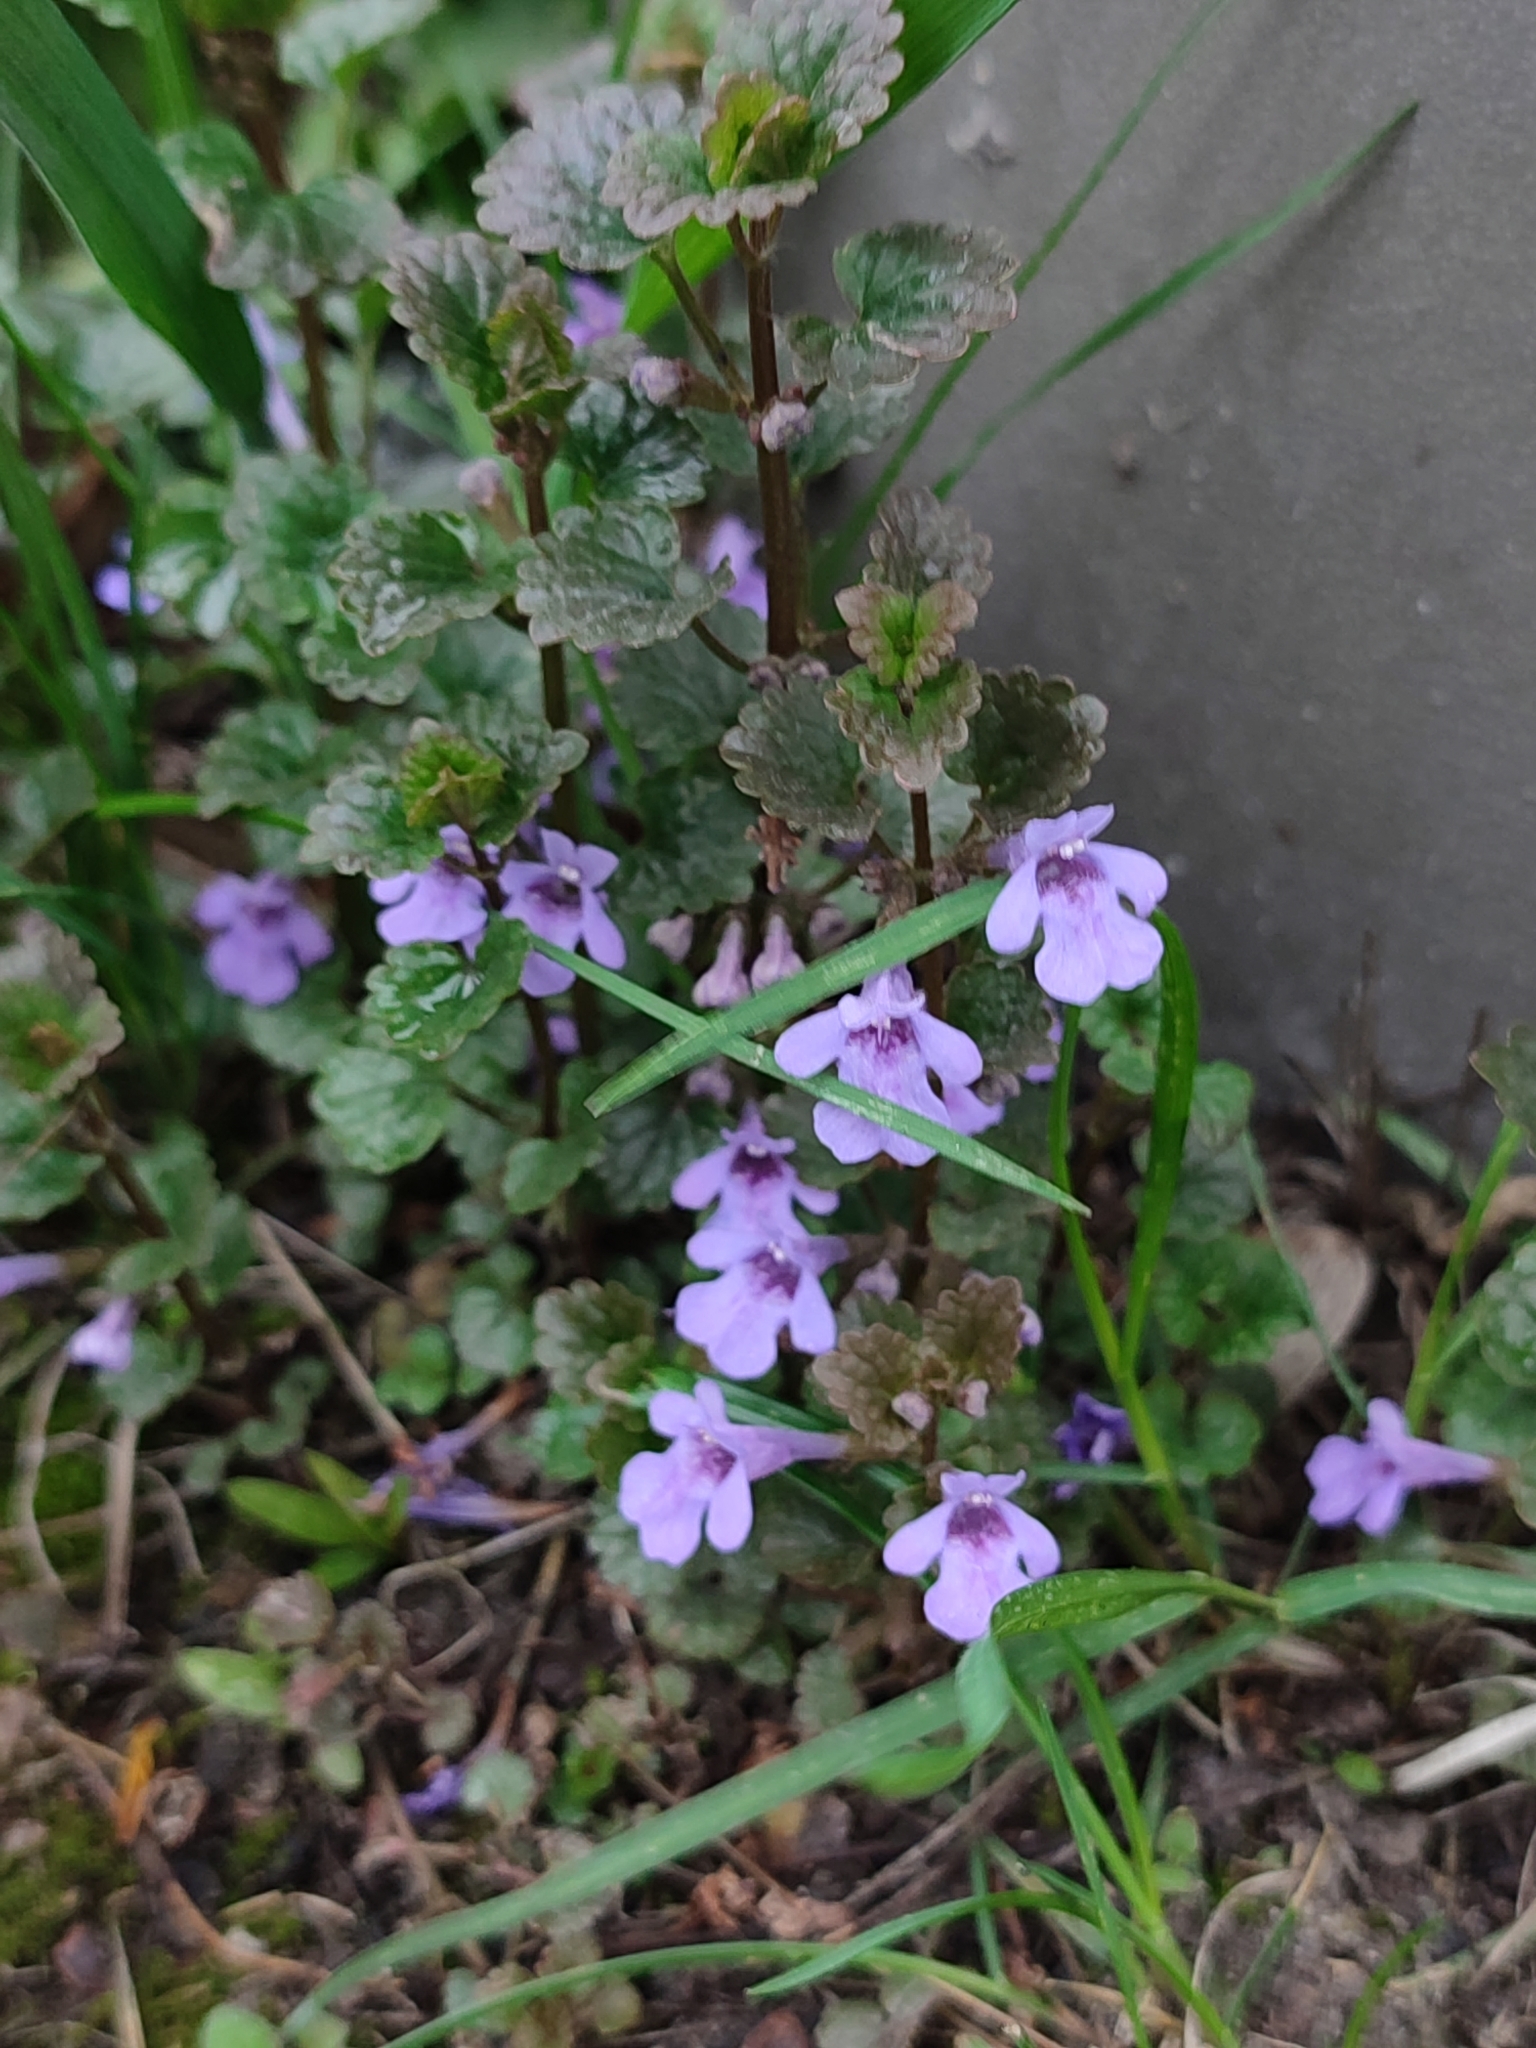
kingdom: Plantae
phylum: Tracheophyta
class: Magnoliopsida
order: Lamiales
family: Lamiaceae
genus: Glechoma
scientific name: Glechoma hederacea
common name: Ground ivy
